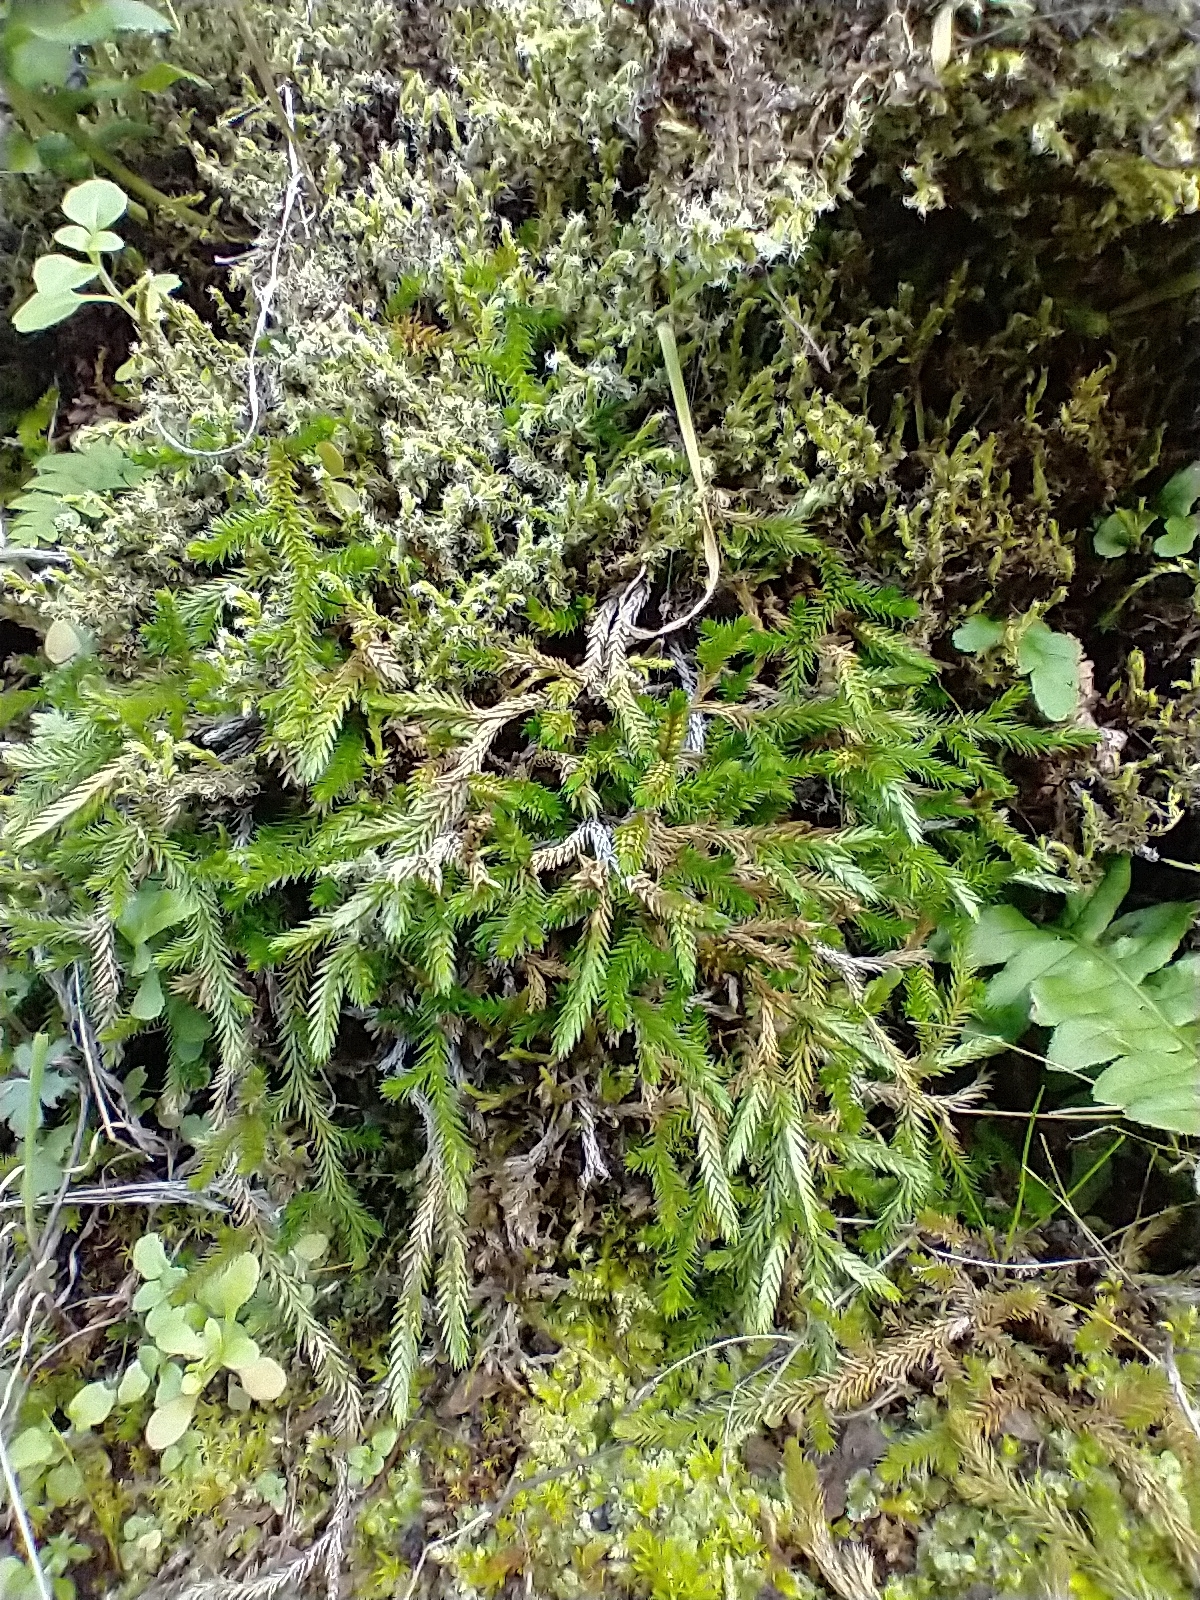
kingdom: Plantae
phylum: Tracheophyta
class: Lycopodiopsida
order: Selaginellales
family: Selaginellaceae
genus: Selaginella
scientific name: Selaginella wallacei
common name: Wallace's selaginella
